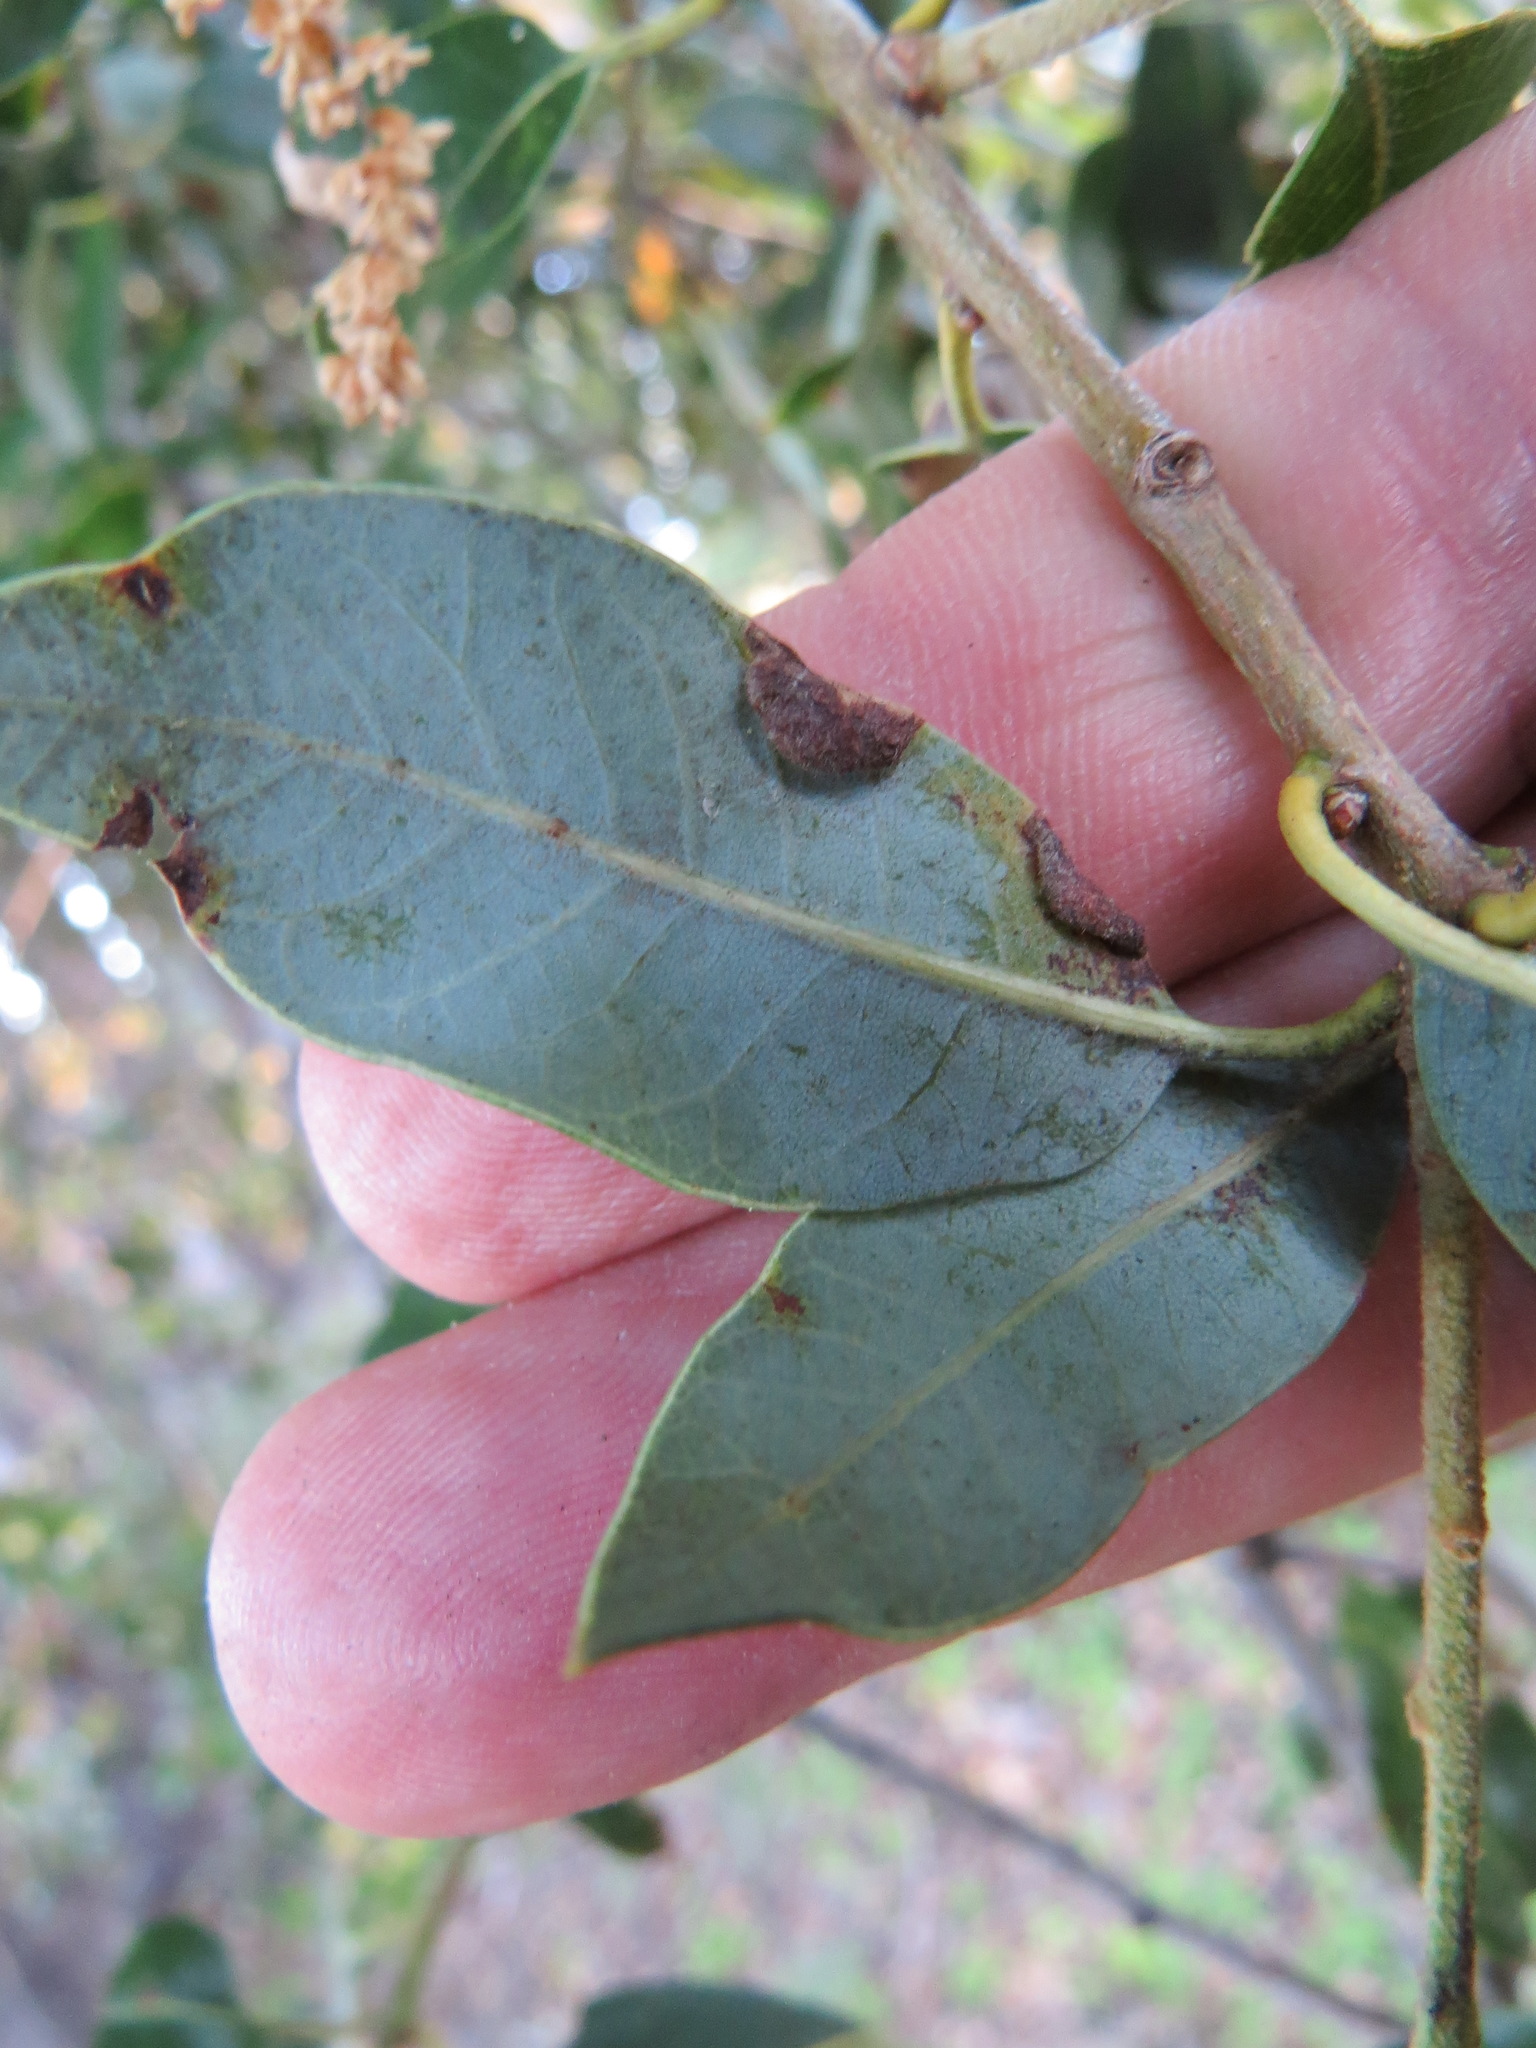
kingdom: Animalia
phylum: Arthropoda
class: Insecta
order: Diptera
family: Cecidomyiidae
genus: Dasineura
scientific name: Dasineura silvestrii
